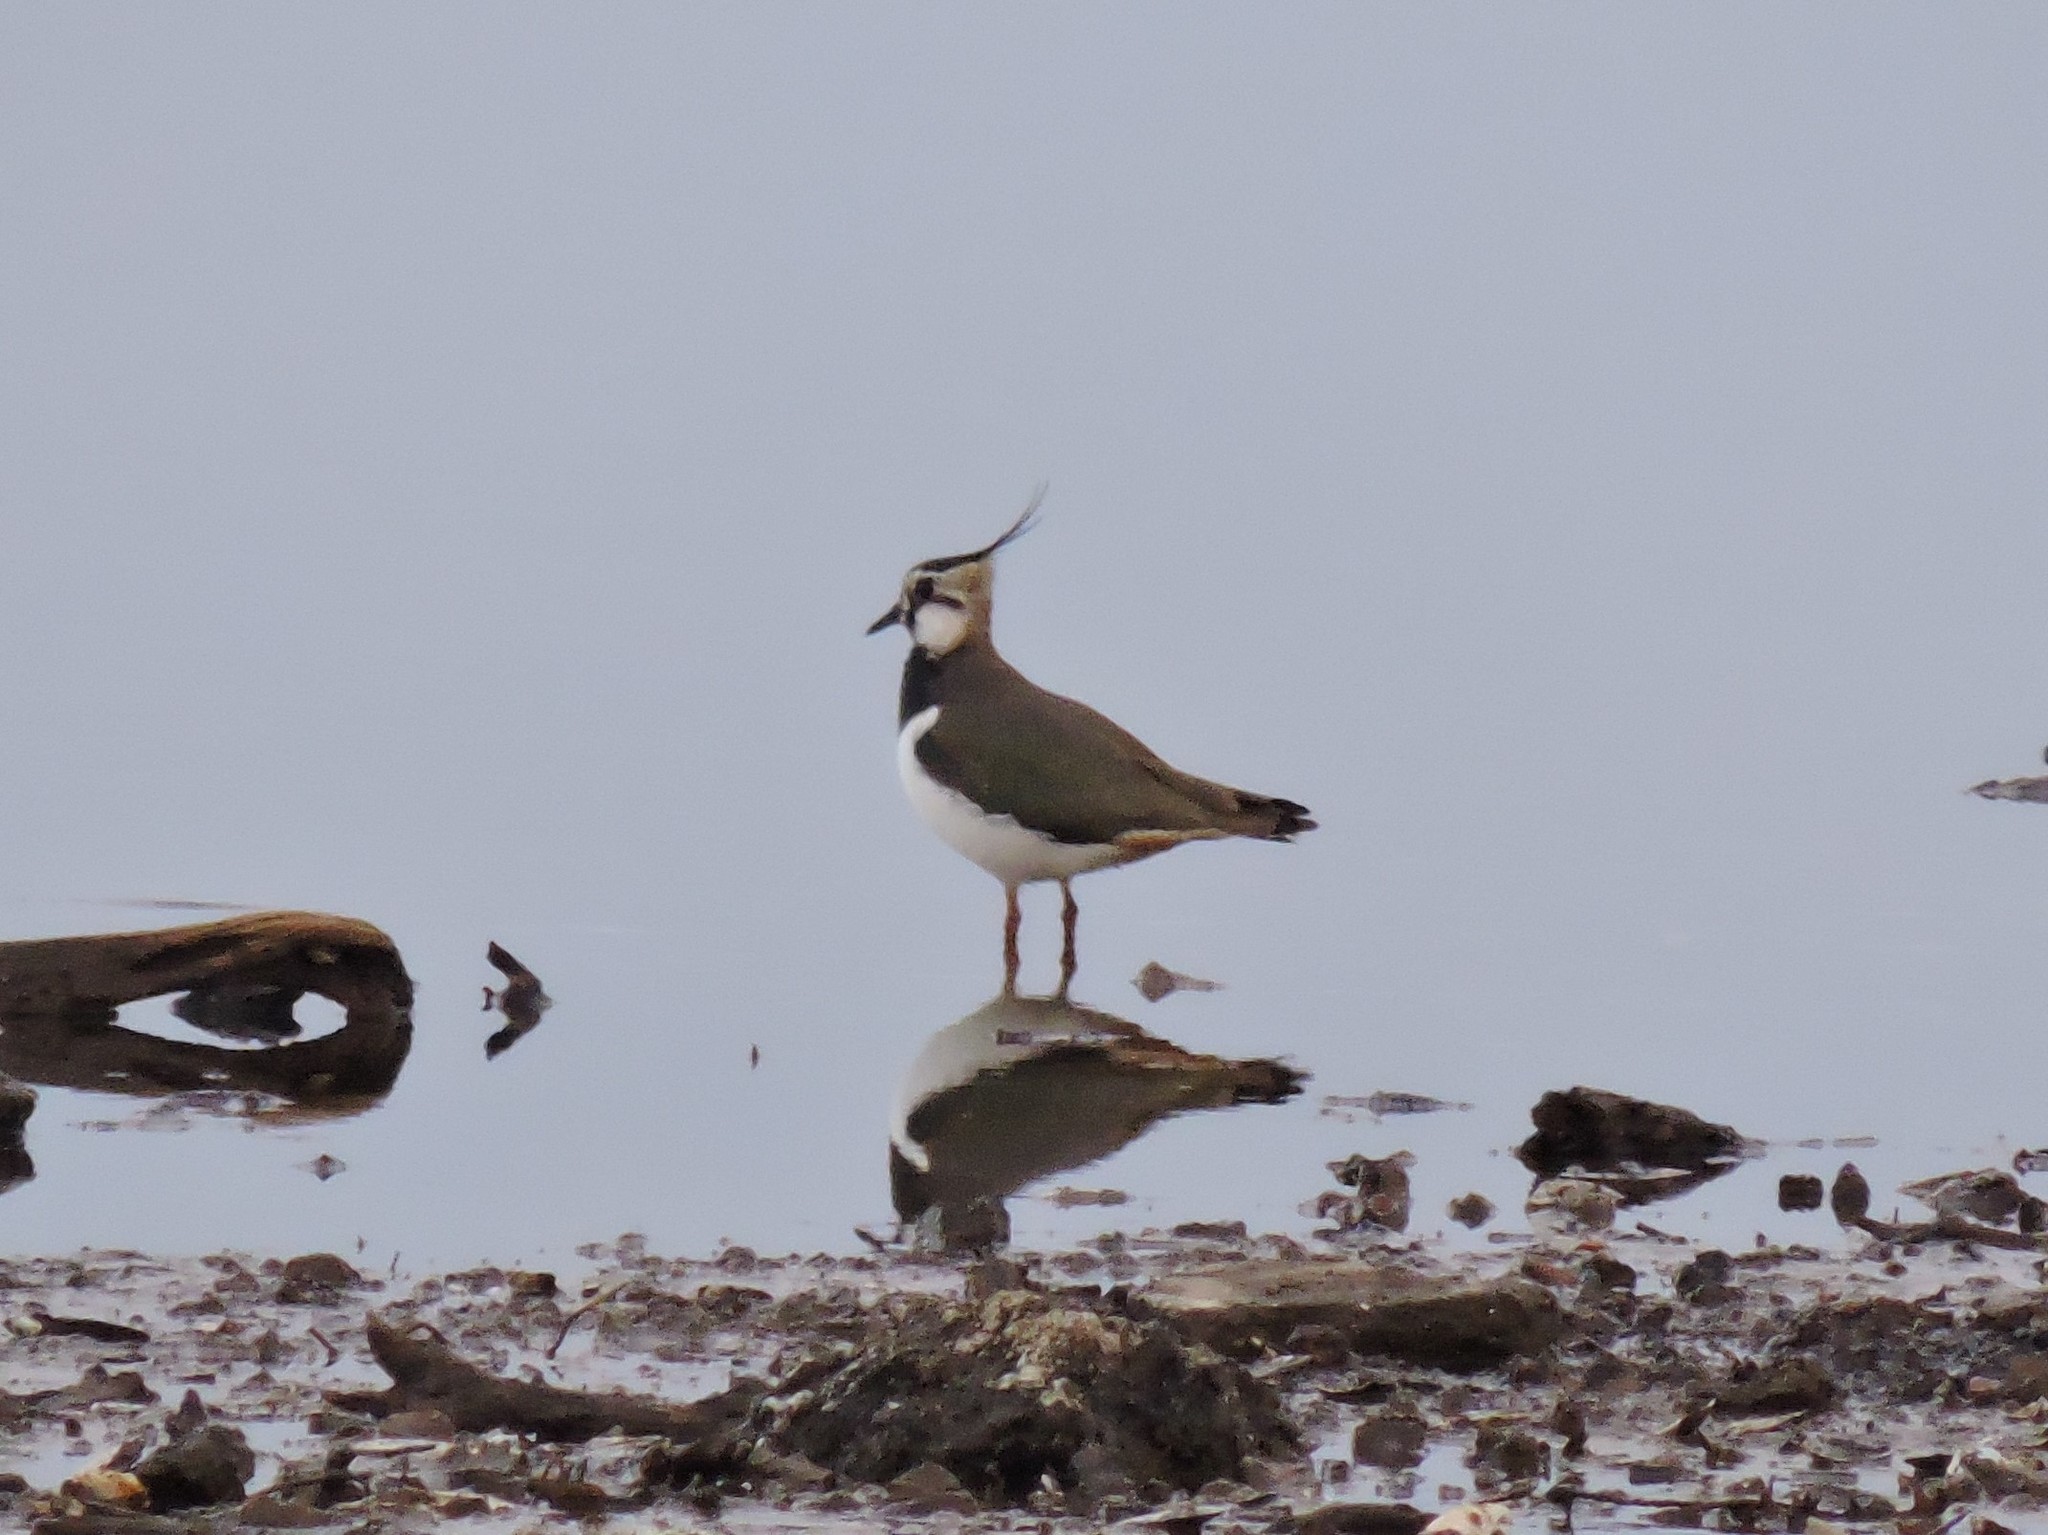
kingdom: Animalia
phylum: Chordata
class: Aves
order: Charadriiformes
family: Charadriidae
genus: Vanellus
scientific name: Vanellus vanellus
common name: Northern lapwing
